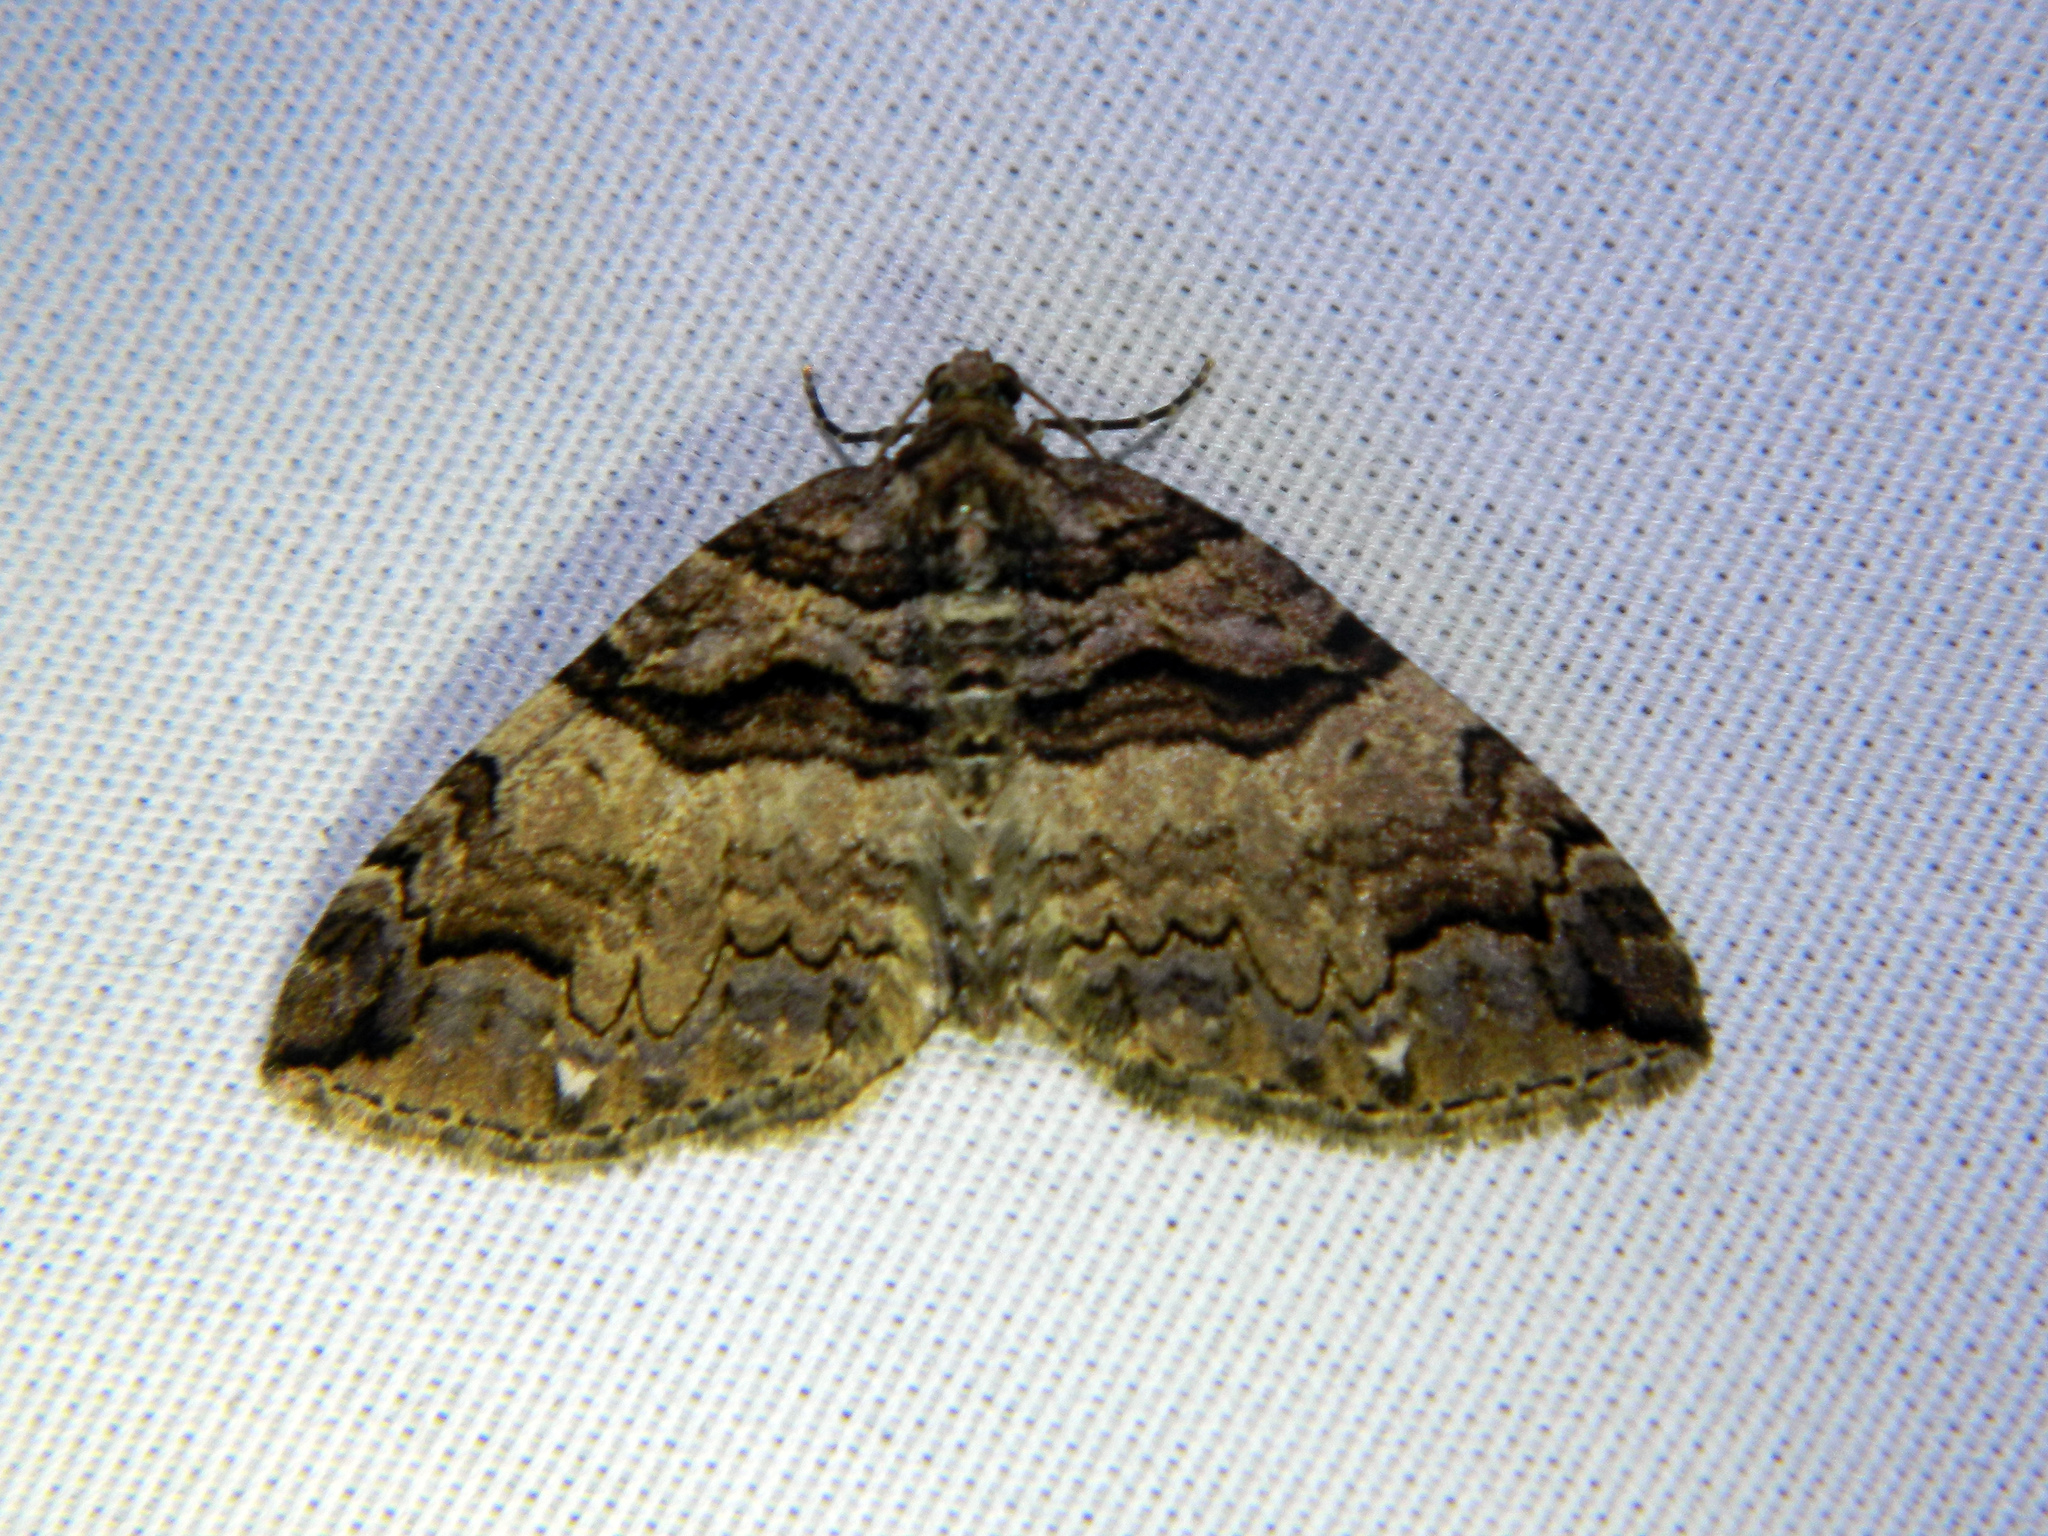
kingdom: Animalia
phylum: Arthropoda
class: Insecta
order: Lepidoptera
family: Geometridae
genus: Anticlea
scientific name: Anticlea vasiliata
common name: Variable carpet
